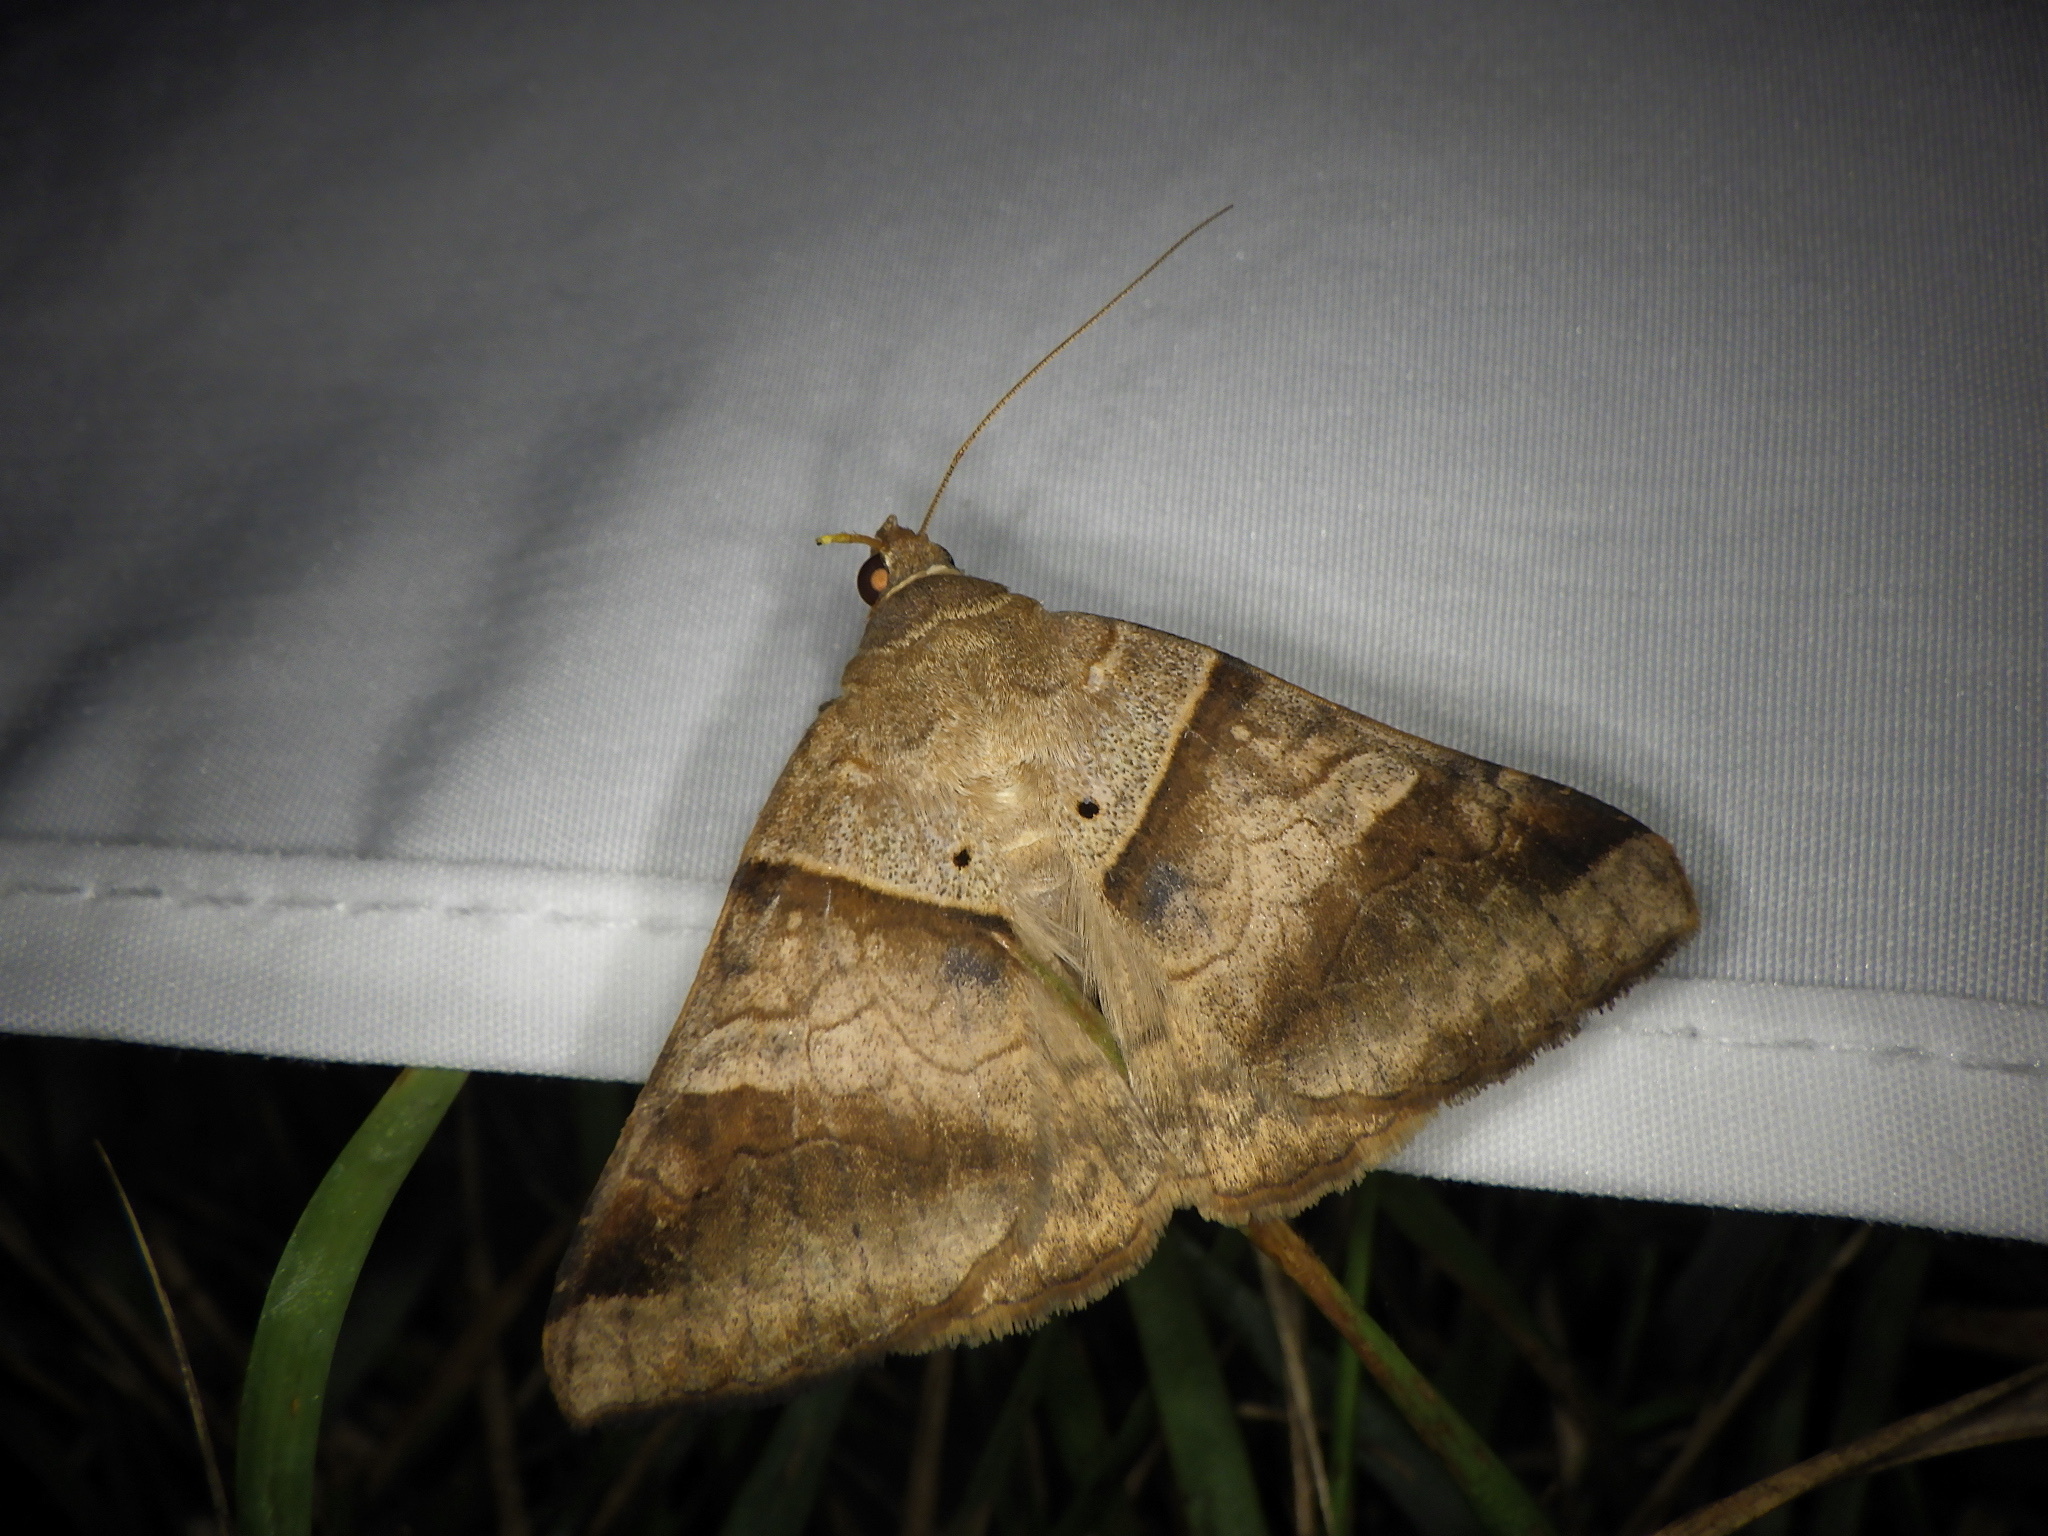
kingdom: Animalia
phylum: Arthropoda
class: Insecta
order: Lepidoptera
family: Erebidae
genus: Mocis
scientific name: Mocis undata
